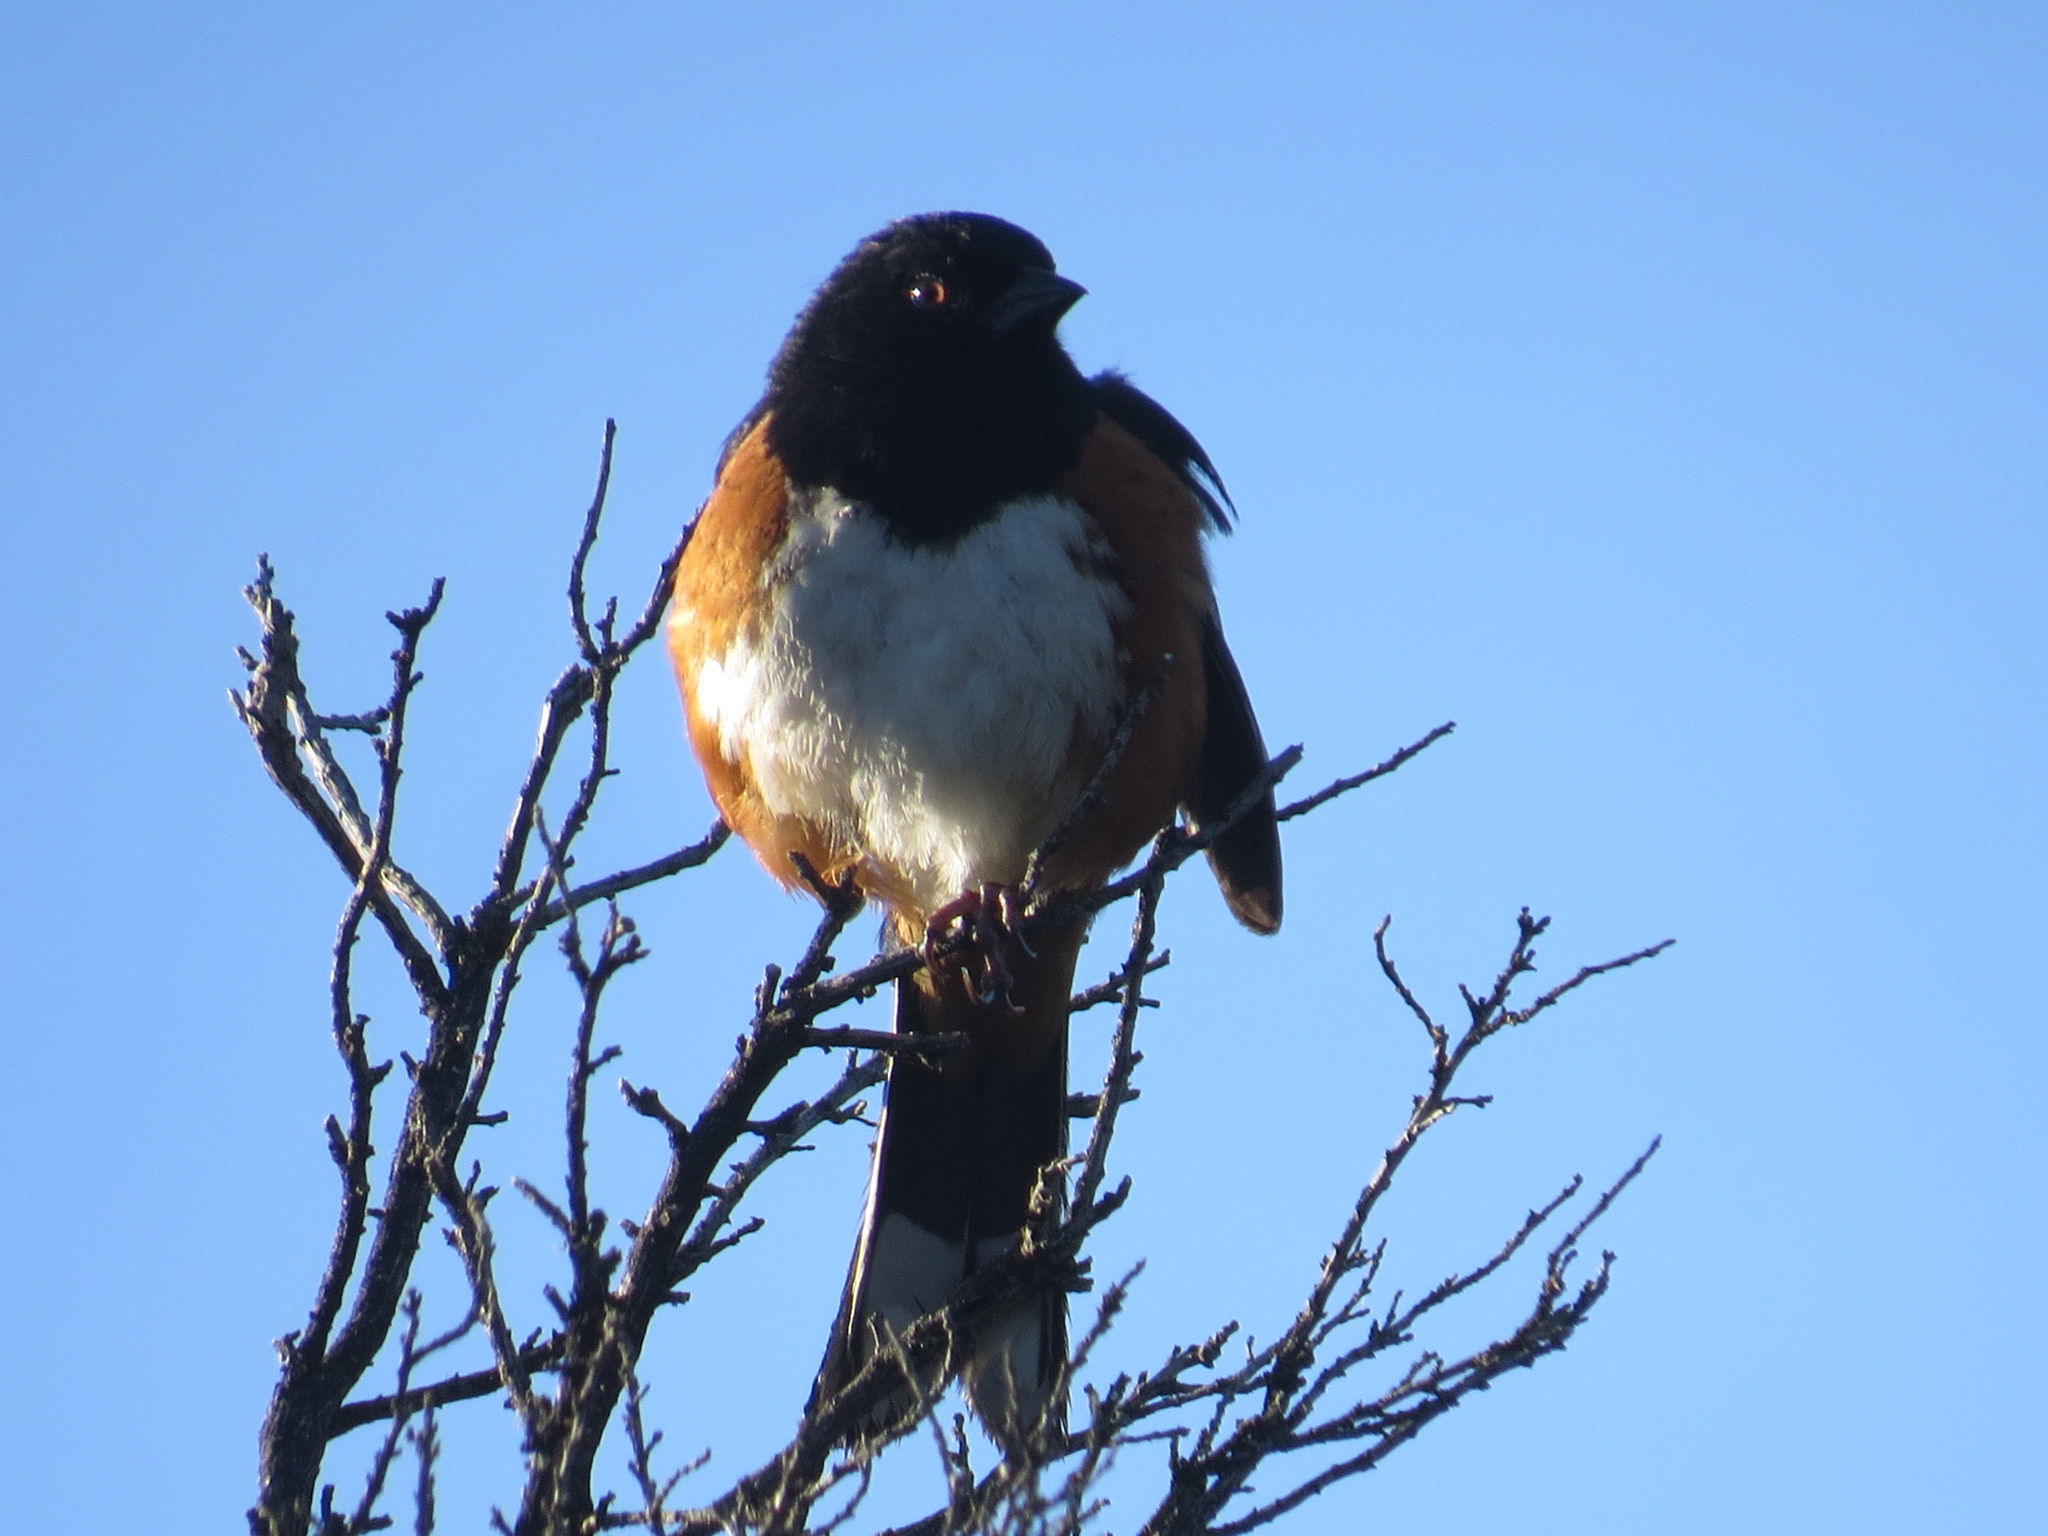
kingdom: Animalia
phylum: Chordata
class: Aves
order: Passeriformes
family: Passerellidae
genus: Pipilo
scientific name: Pipilo maculatus
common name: Spotted towhee
